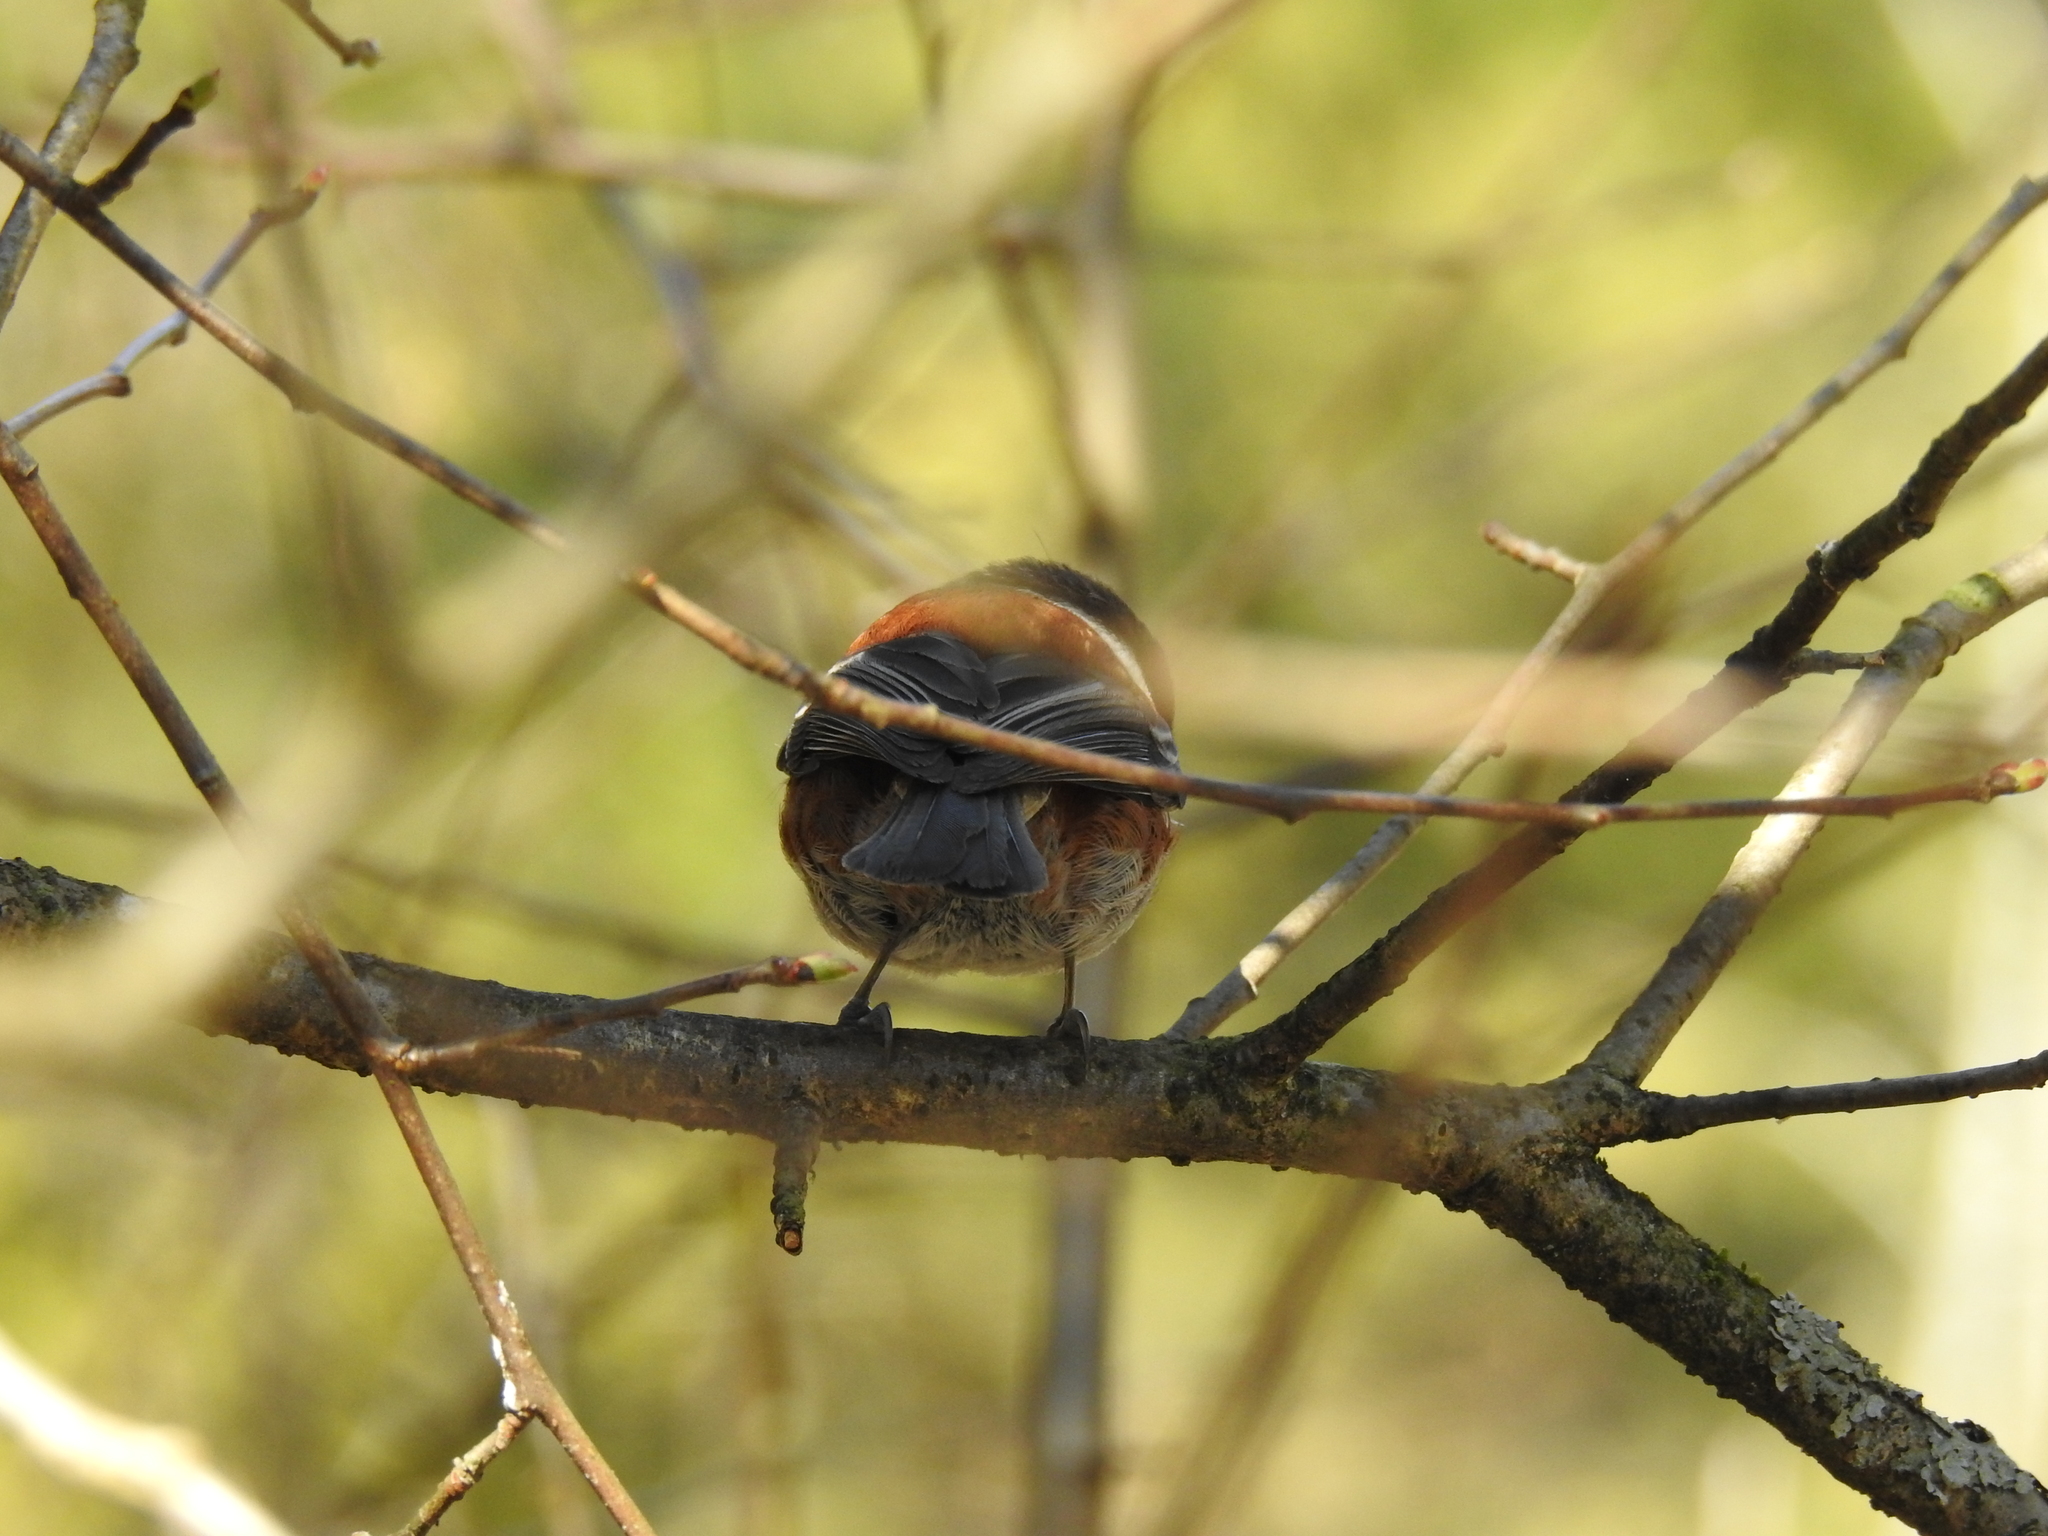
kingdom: Animalia
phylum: Chordata
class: Aves
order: Passeriformes
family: Paridae
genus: Poecile
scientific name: Poecile rufescens
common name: Chestnut-backed chickadee
